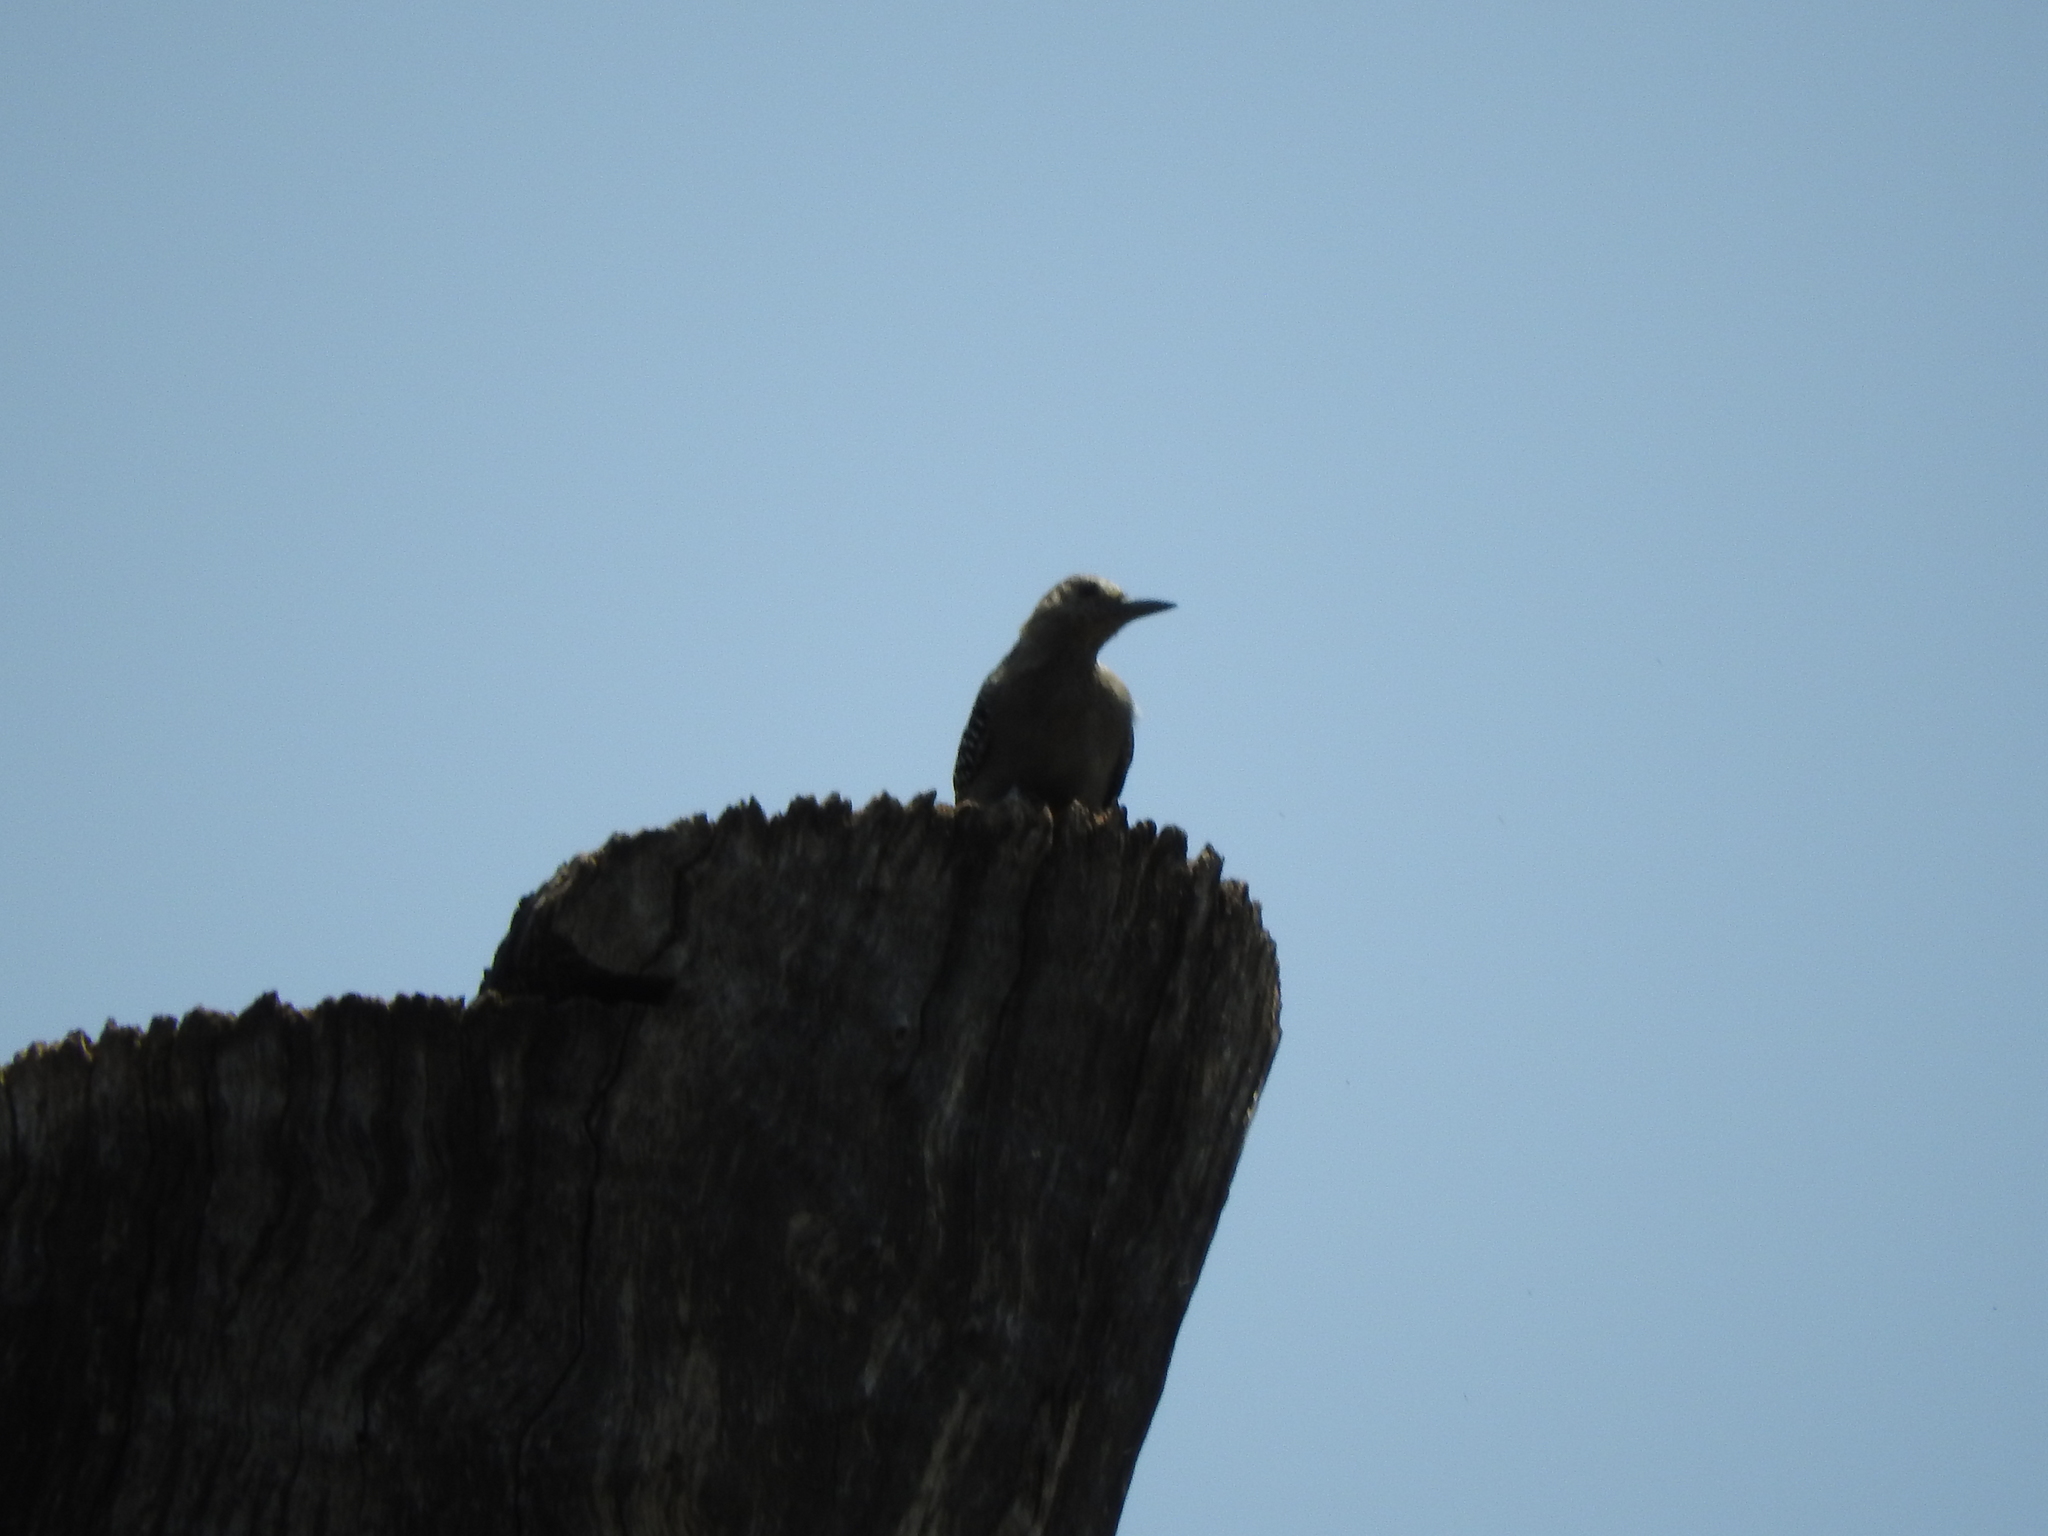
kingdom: Animalia
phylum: Chordata
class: Aves
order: Piciformes
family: Picidae
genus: Melanerpes
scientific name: Melanerpes aurifrons
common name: Golden-fronted woodpecker
